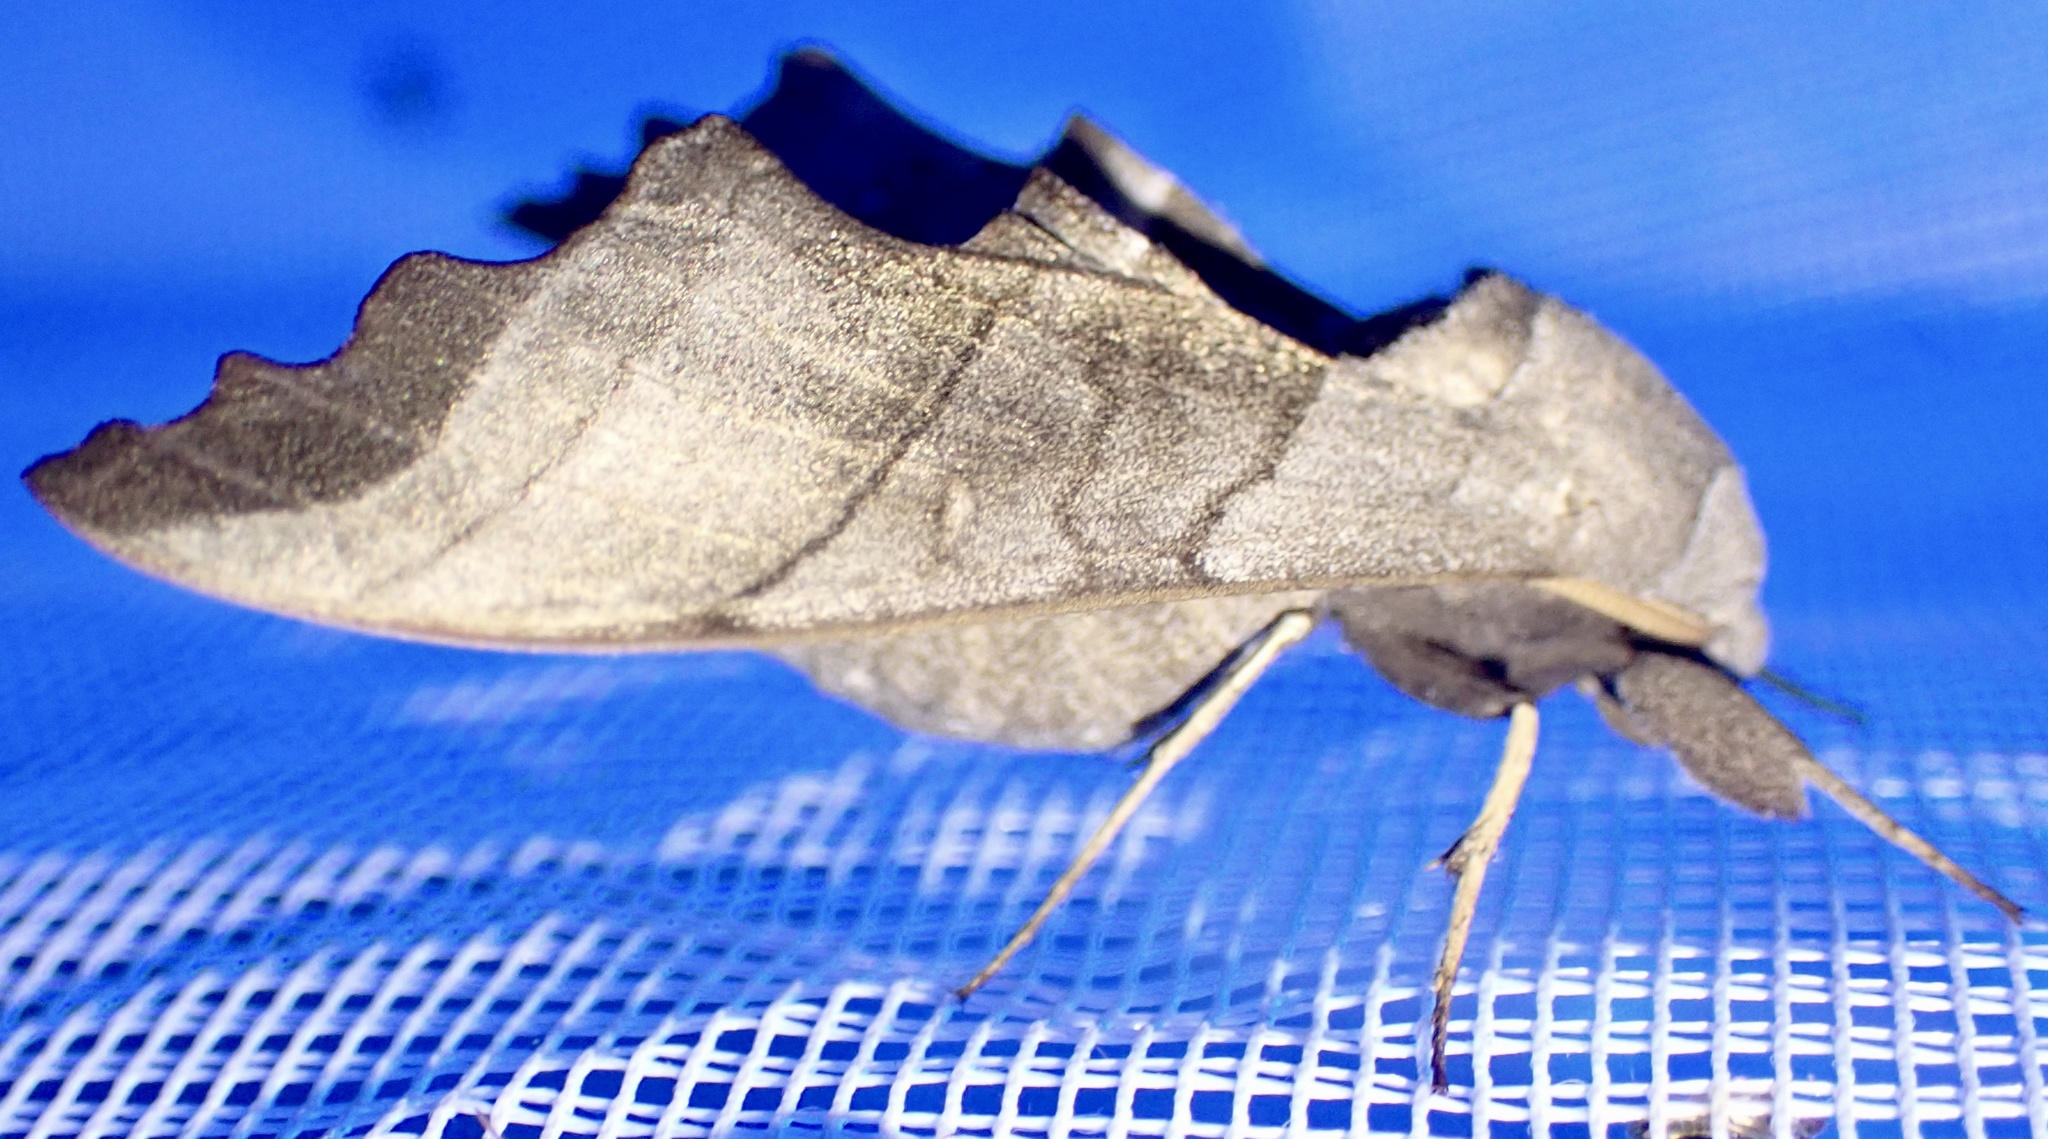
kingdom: Animalia
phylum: Arthropoda
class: Insecta
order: Lepidoptera
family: Sphingidae
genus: Polyptychoides
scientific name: Polyptychoides niloticus
